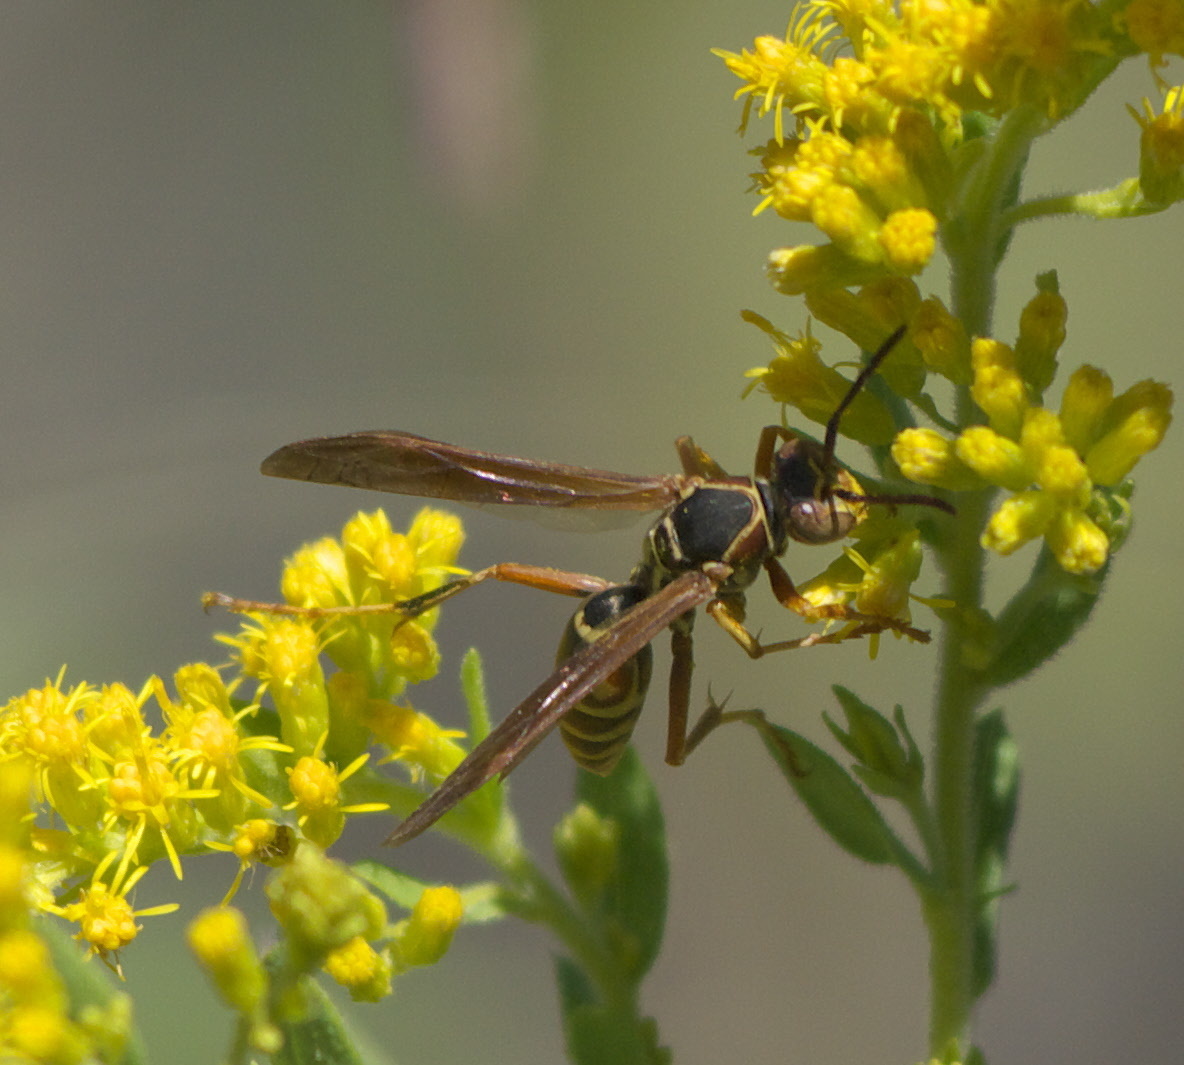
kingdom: Animalia
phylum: Arthropoda
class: Insecta
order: Hymenoptera
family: Eumenidae
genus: Polistes
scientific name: Polistes fuscatus
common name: Dark paper wasp
